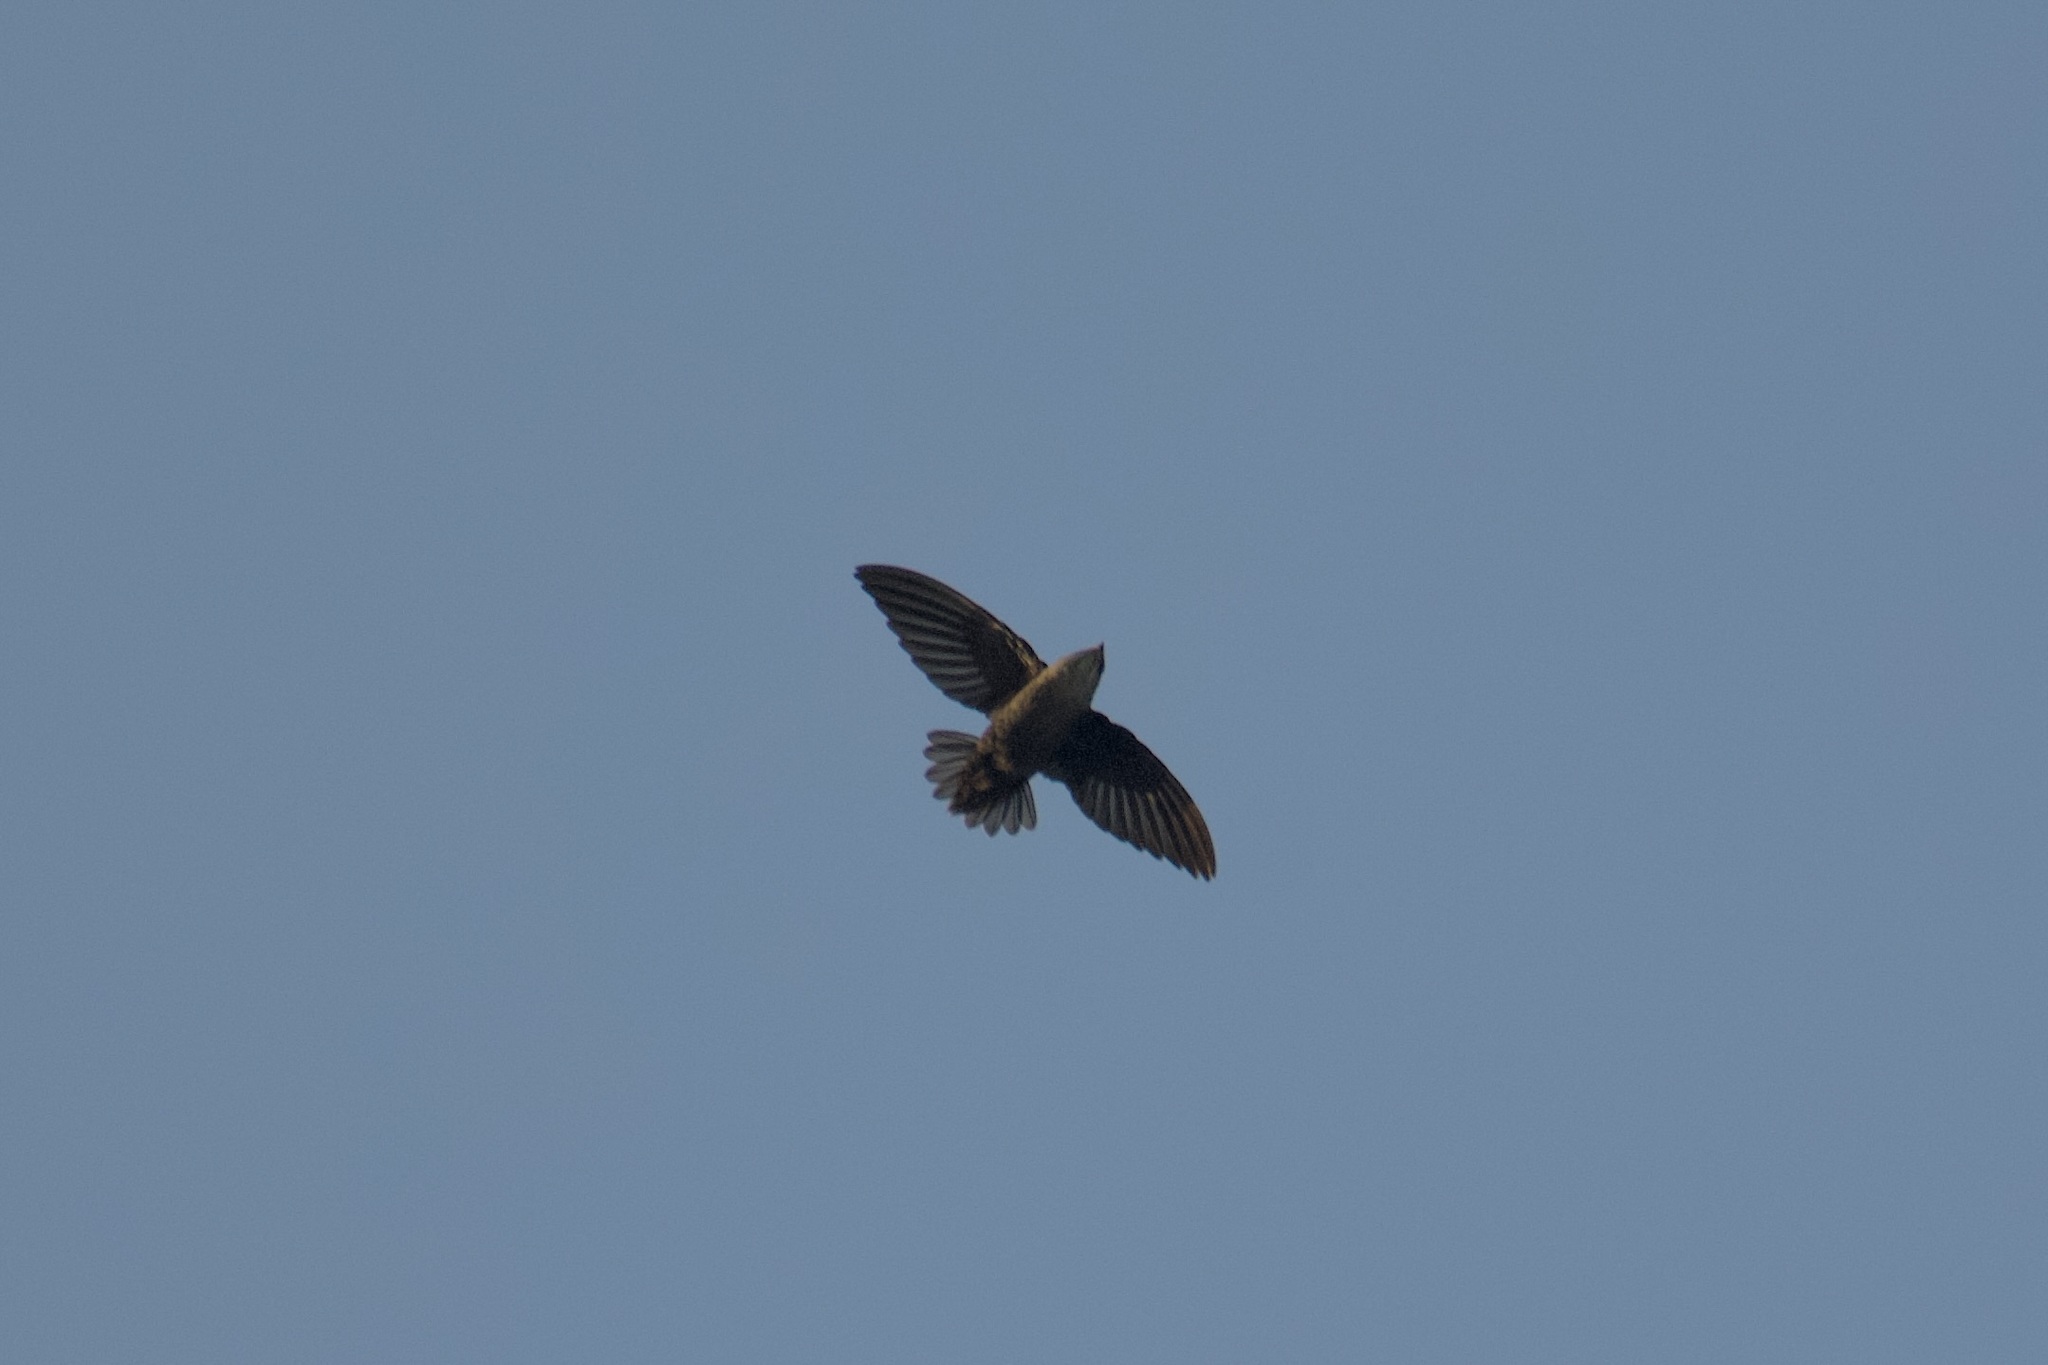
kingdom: Animalia
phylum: Chordata
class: Aves
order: Apodiformes
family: Apodidae
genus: Chaetura
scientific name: Chaetura vauxi
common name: Vaux's swift
